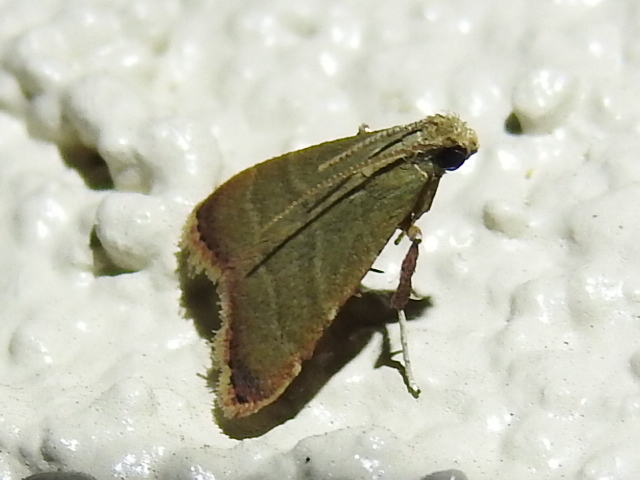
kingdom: Animalia
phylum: Arthropoda
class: Insecta
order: Lepidoptera
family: Pyralidae
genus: Arta
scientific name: Arta olivalis
